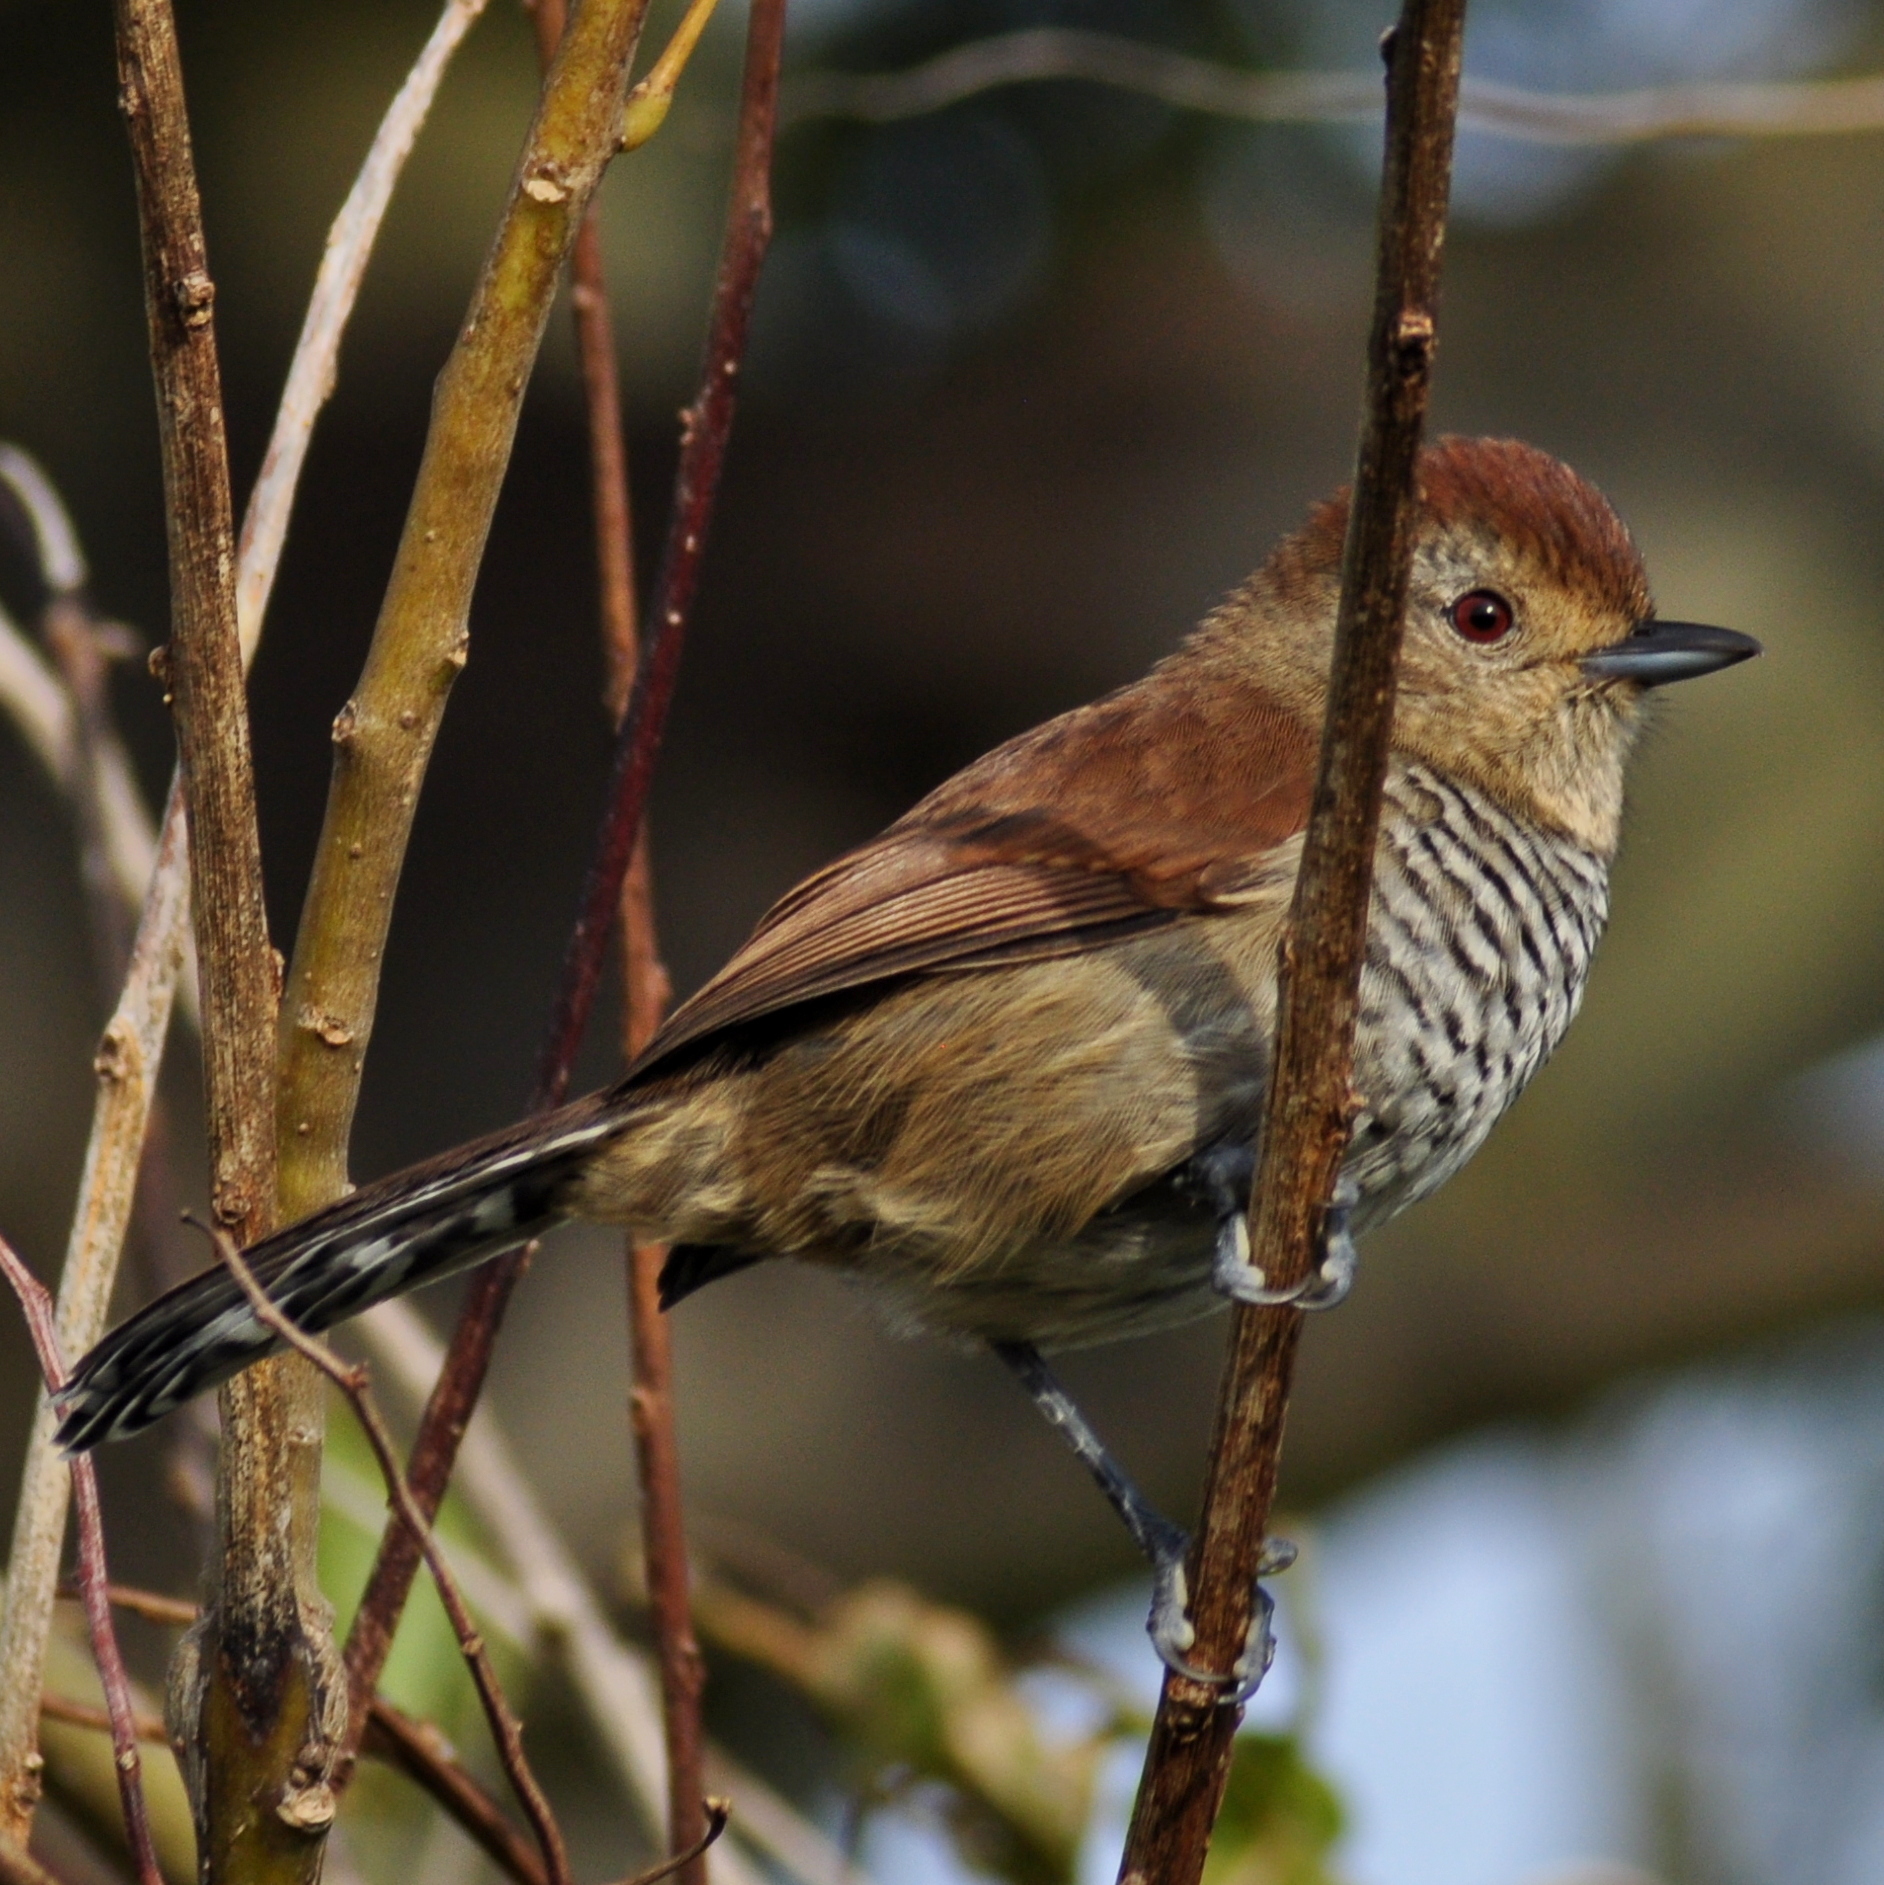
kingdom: Animalia
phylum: Chordata
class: Aves
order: Passeriformes
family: Thamnophilidae
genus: Thamnophilus
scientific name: Thamnophilus ruficapillus
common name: Rufous-capped antshrike
